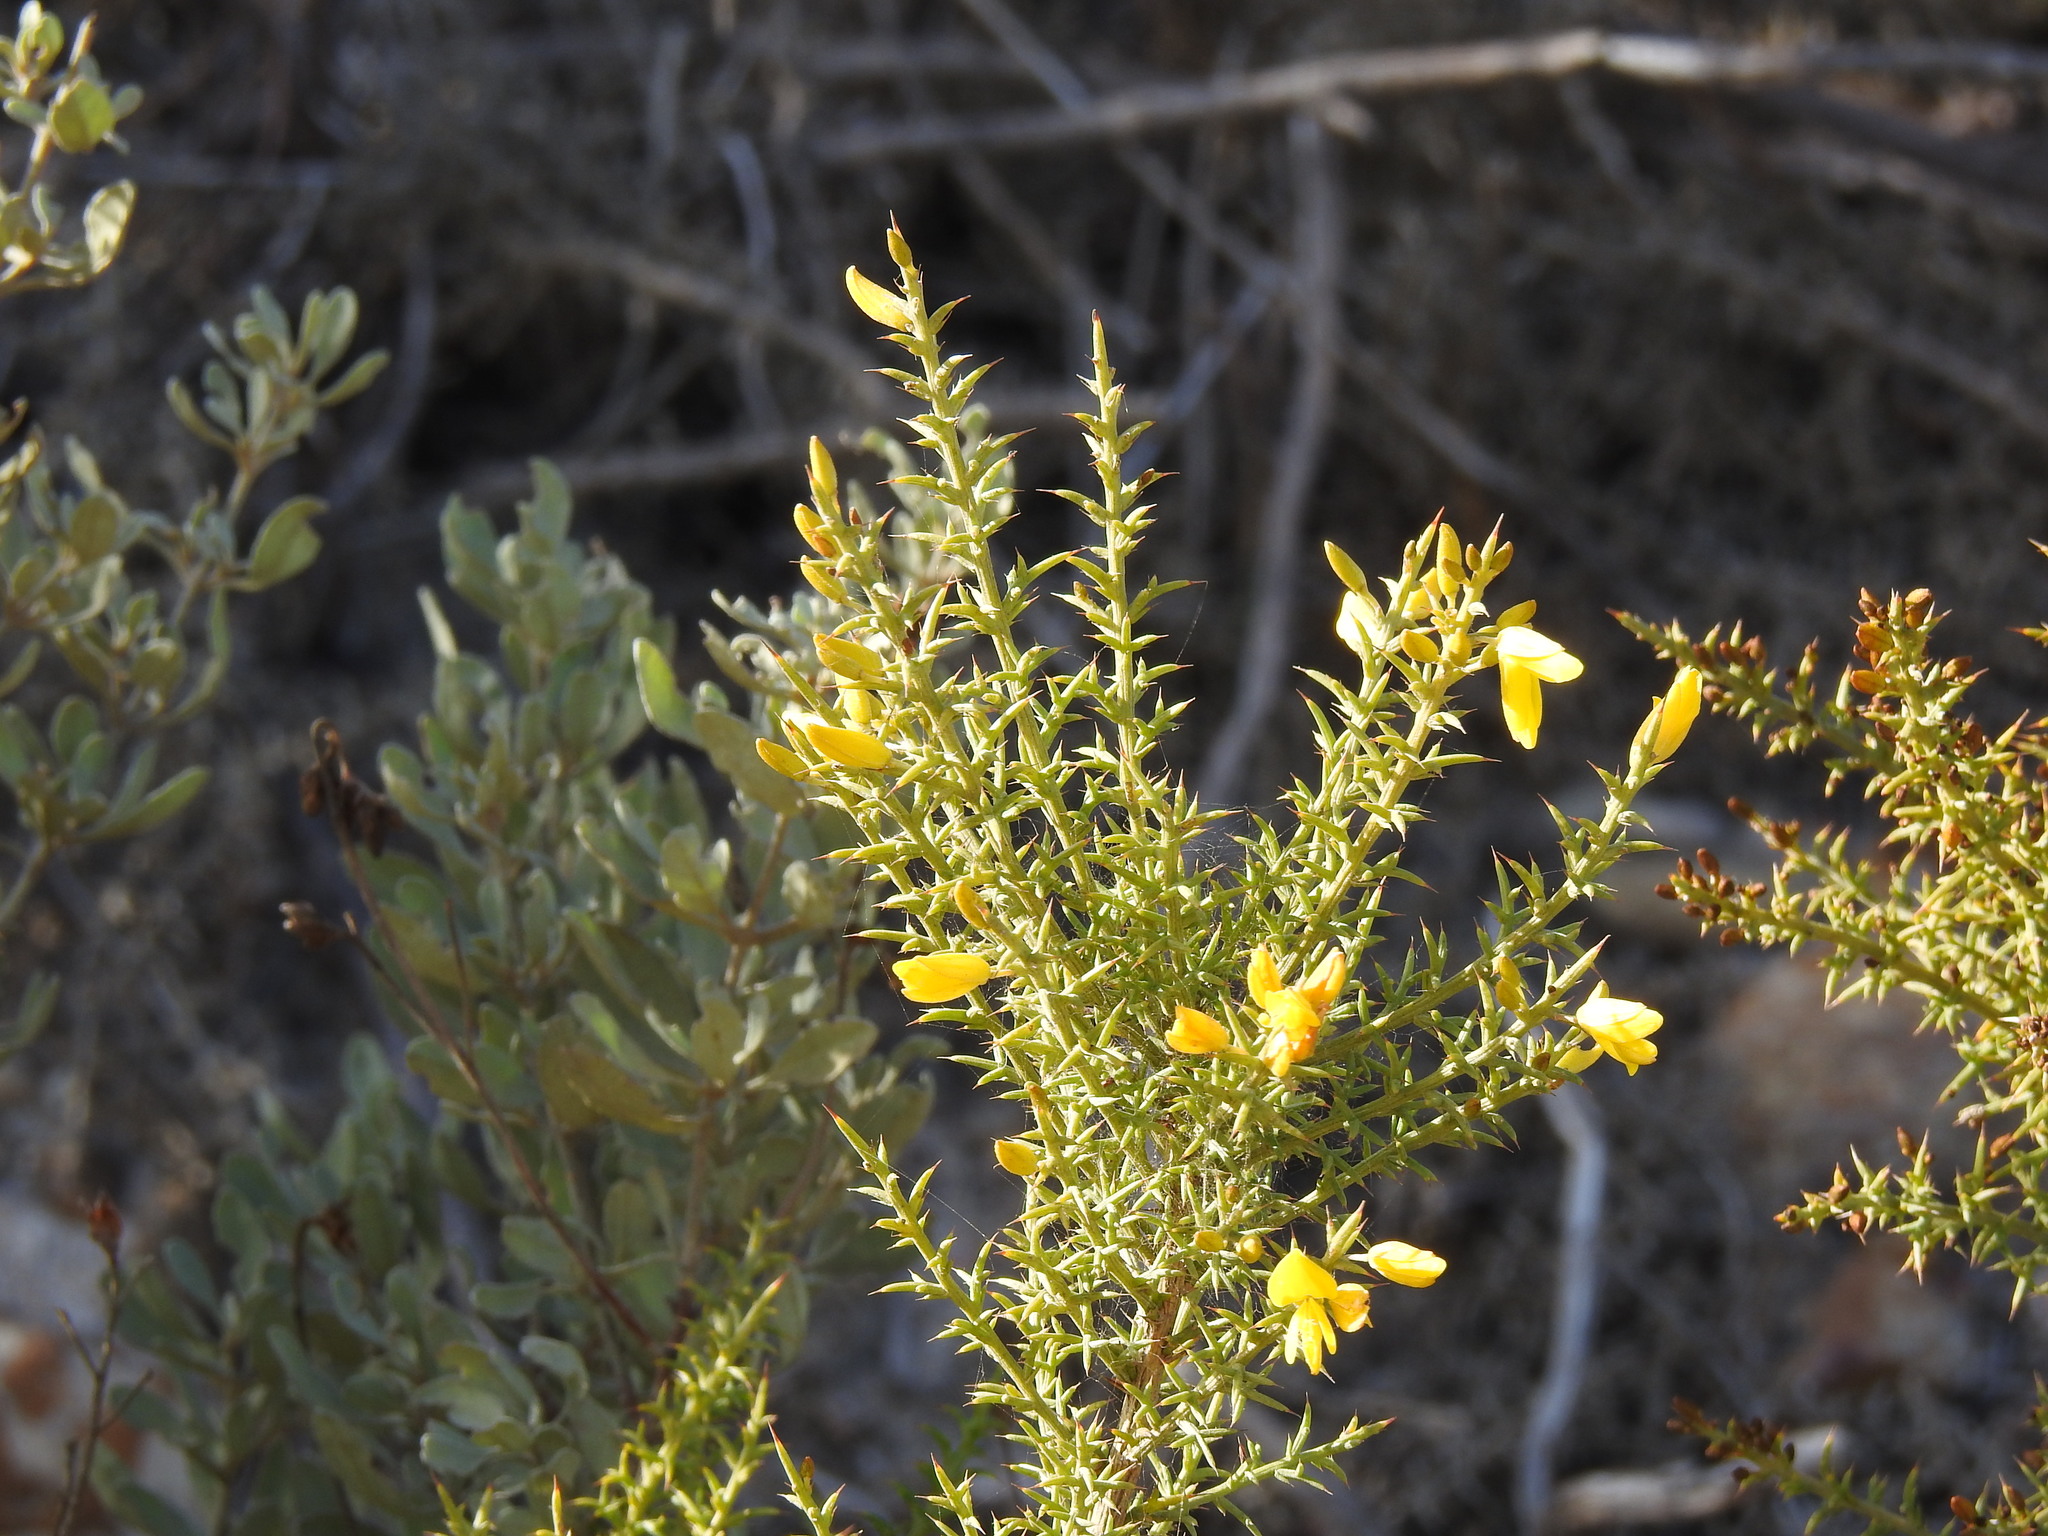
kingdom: Plantae
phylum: Tracheophyta
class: Magnoliopsida
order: Fabales
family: Fabaceae
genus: Ulex
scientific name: Ulex argenteus
